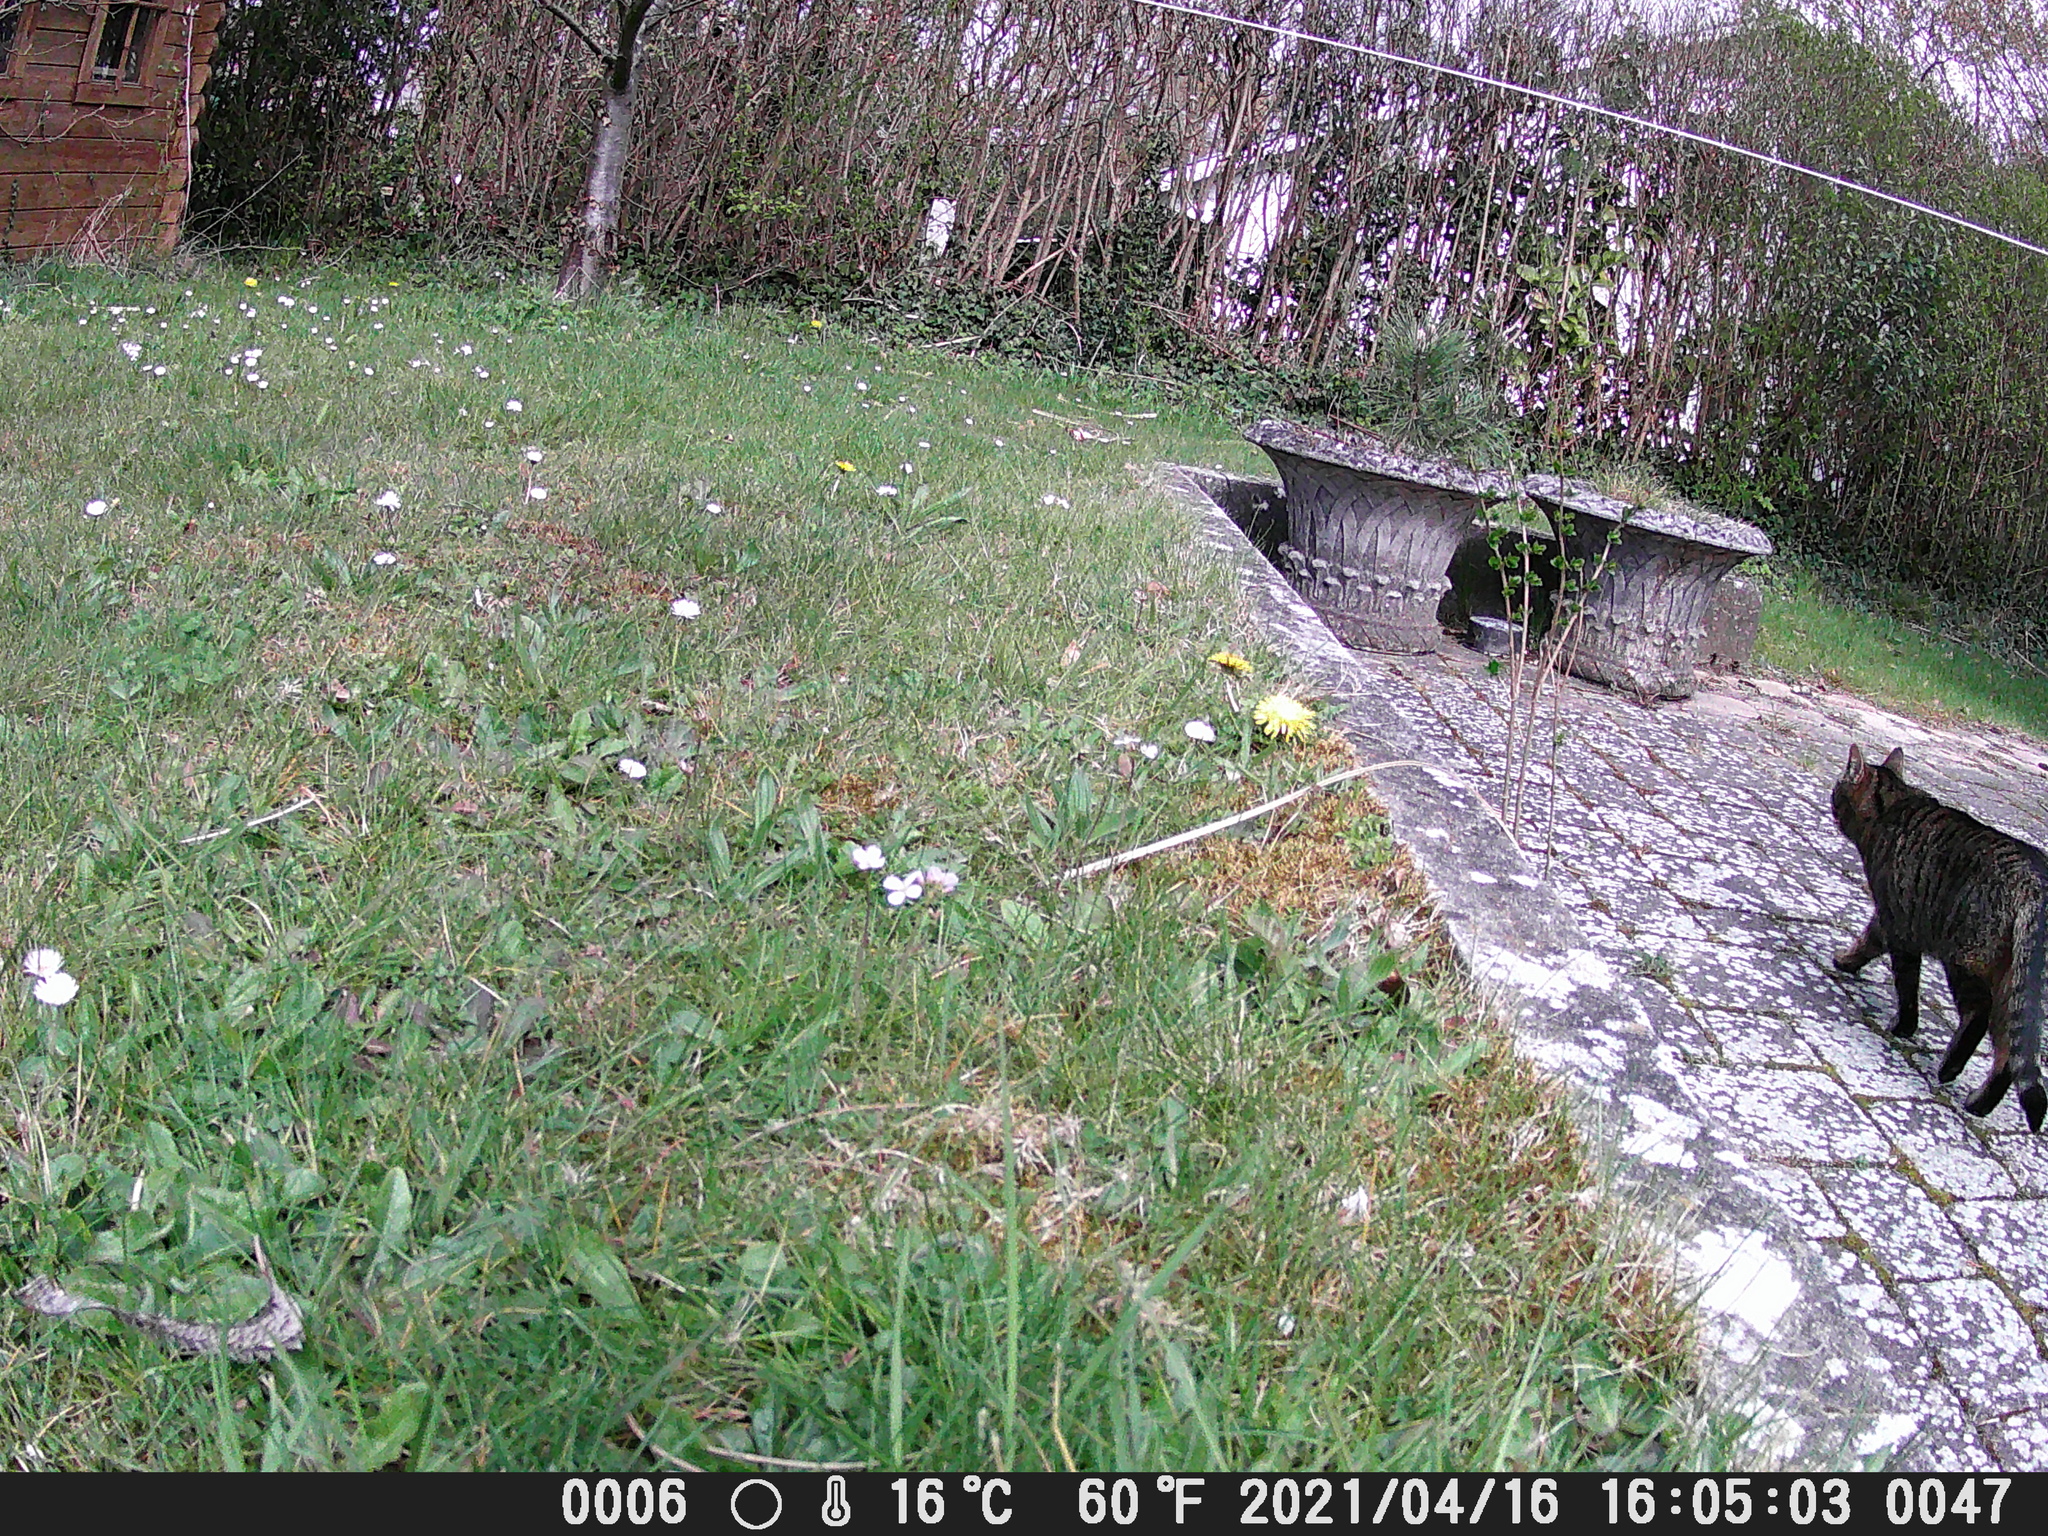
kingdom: Animalia
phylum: Chordata
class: Mammalia
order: Carnivora
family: Felidae
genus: Felis
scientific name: Felis catus
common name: Domestic cat
